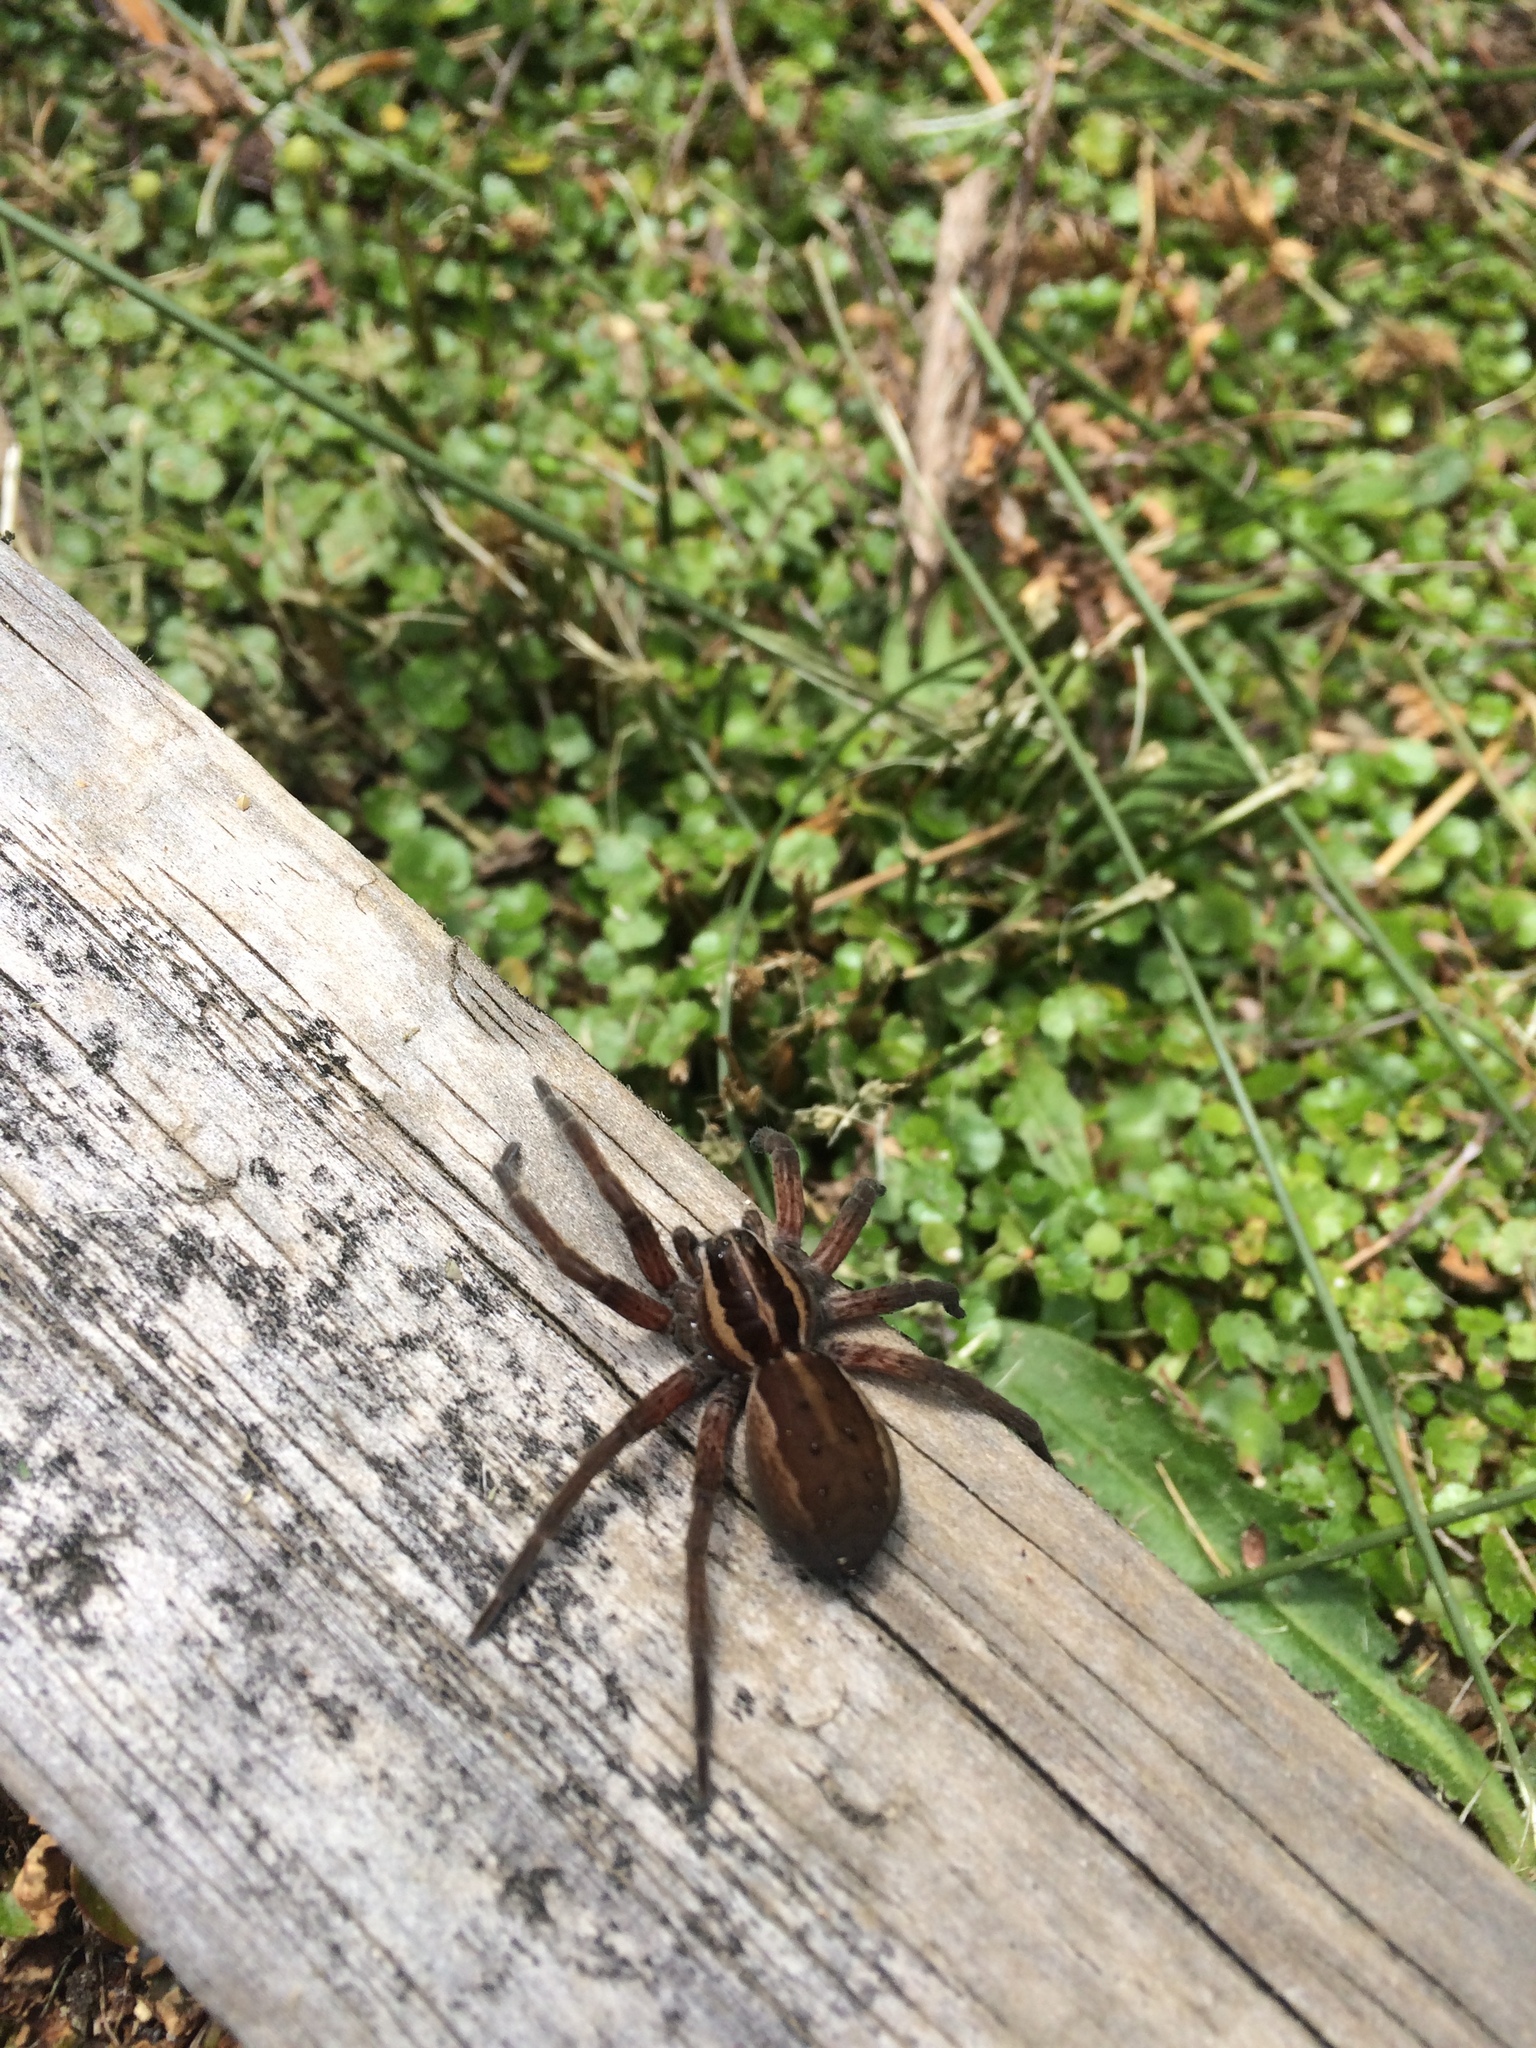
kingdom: Animalia
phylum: Arthropoda
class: Arachnida
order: Araneae
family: Pisauridae
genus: Dolomedes
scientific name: Dolomedes minor
